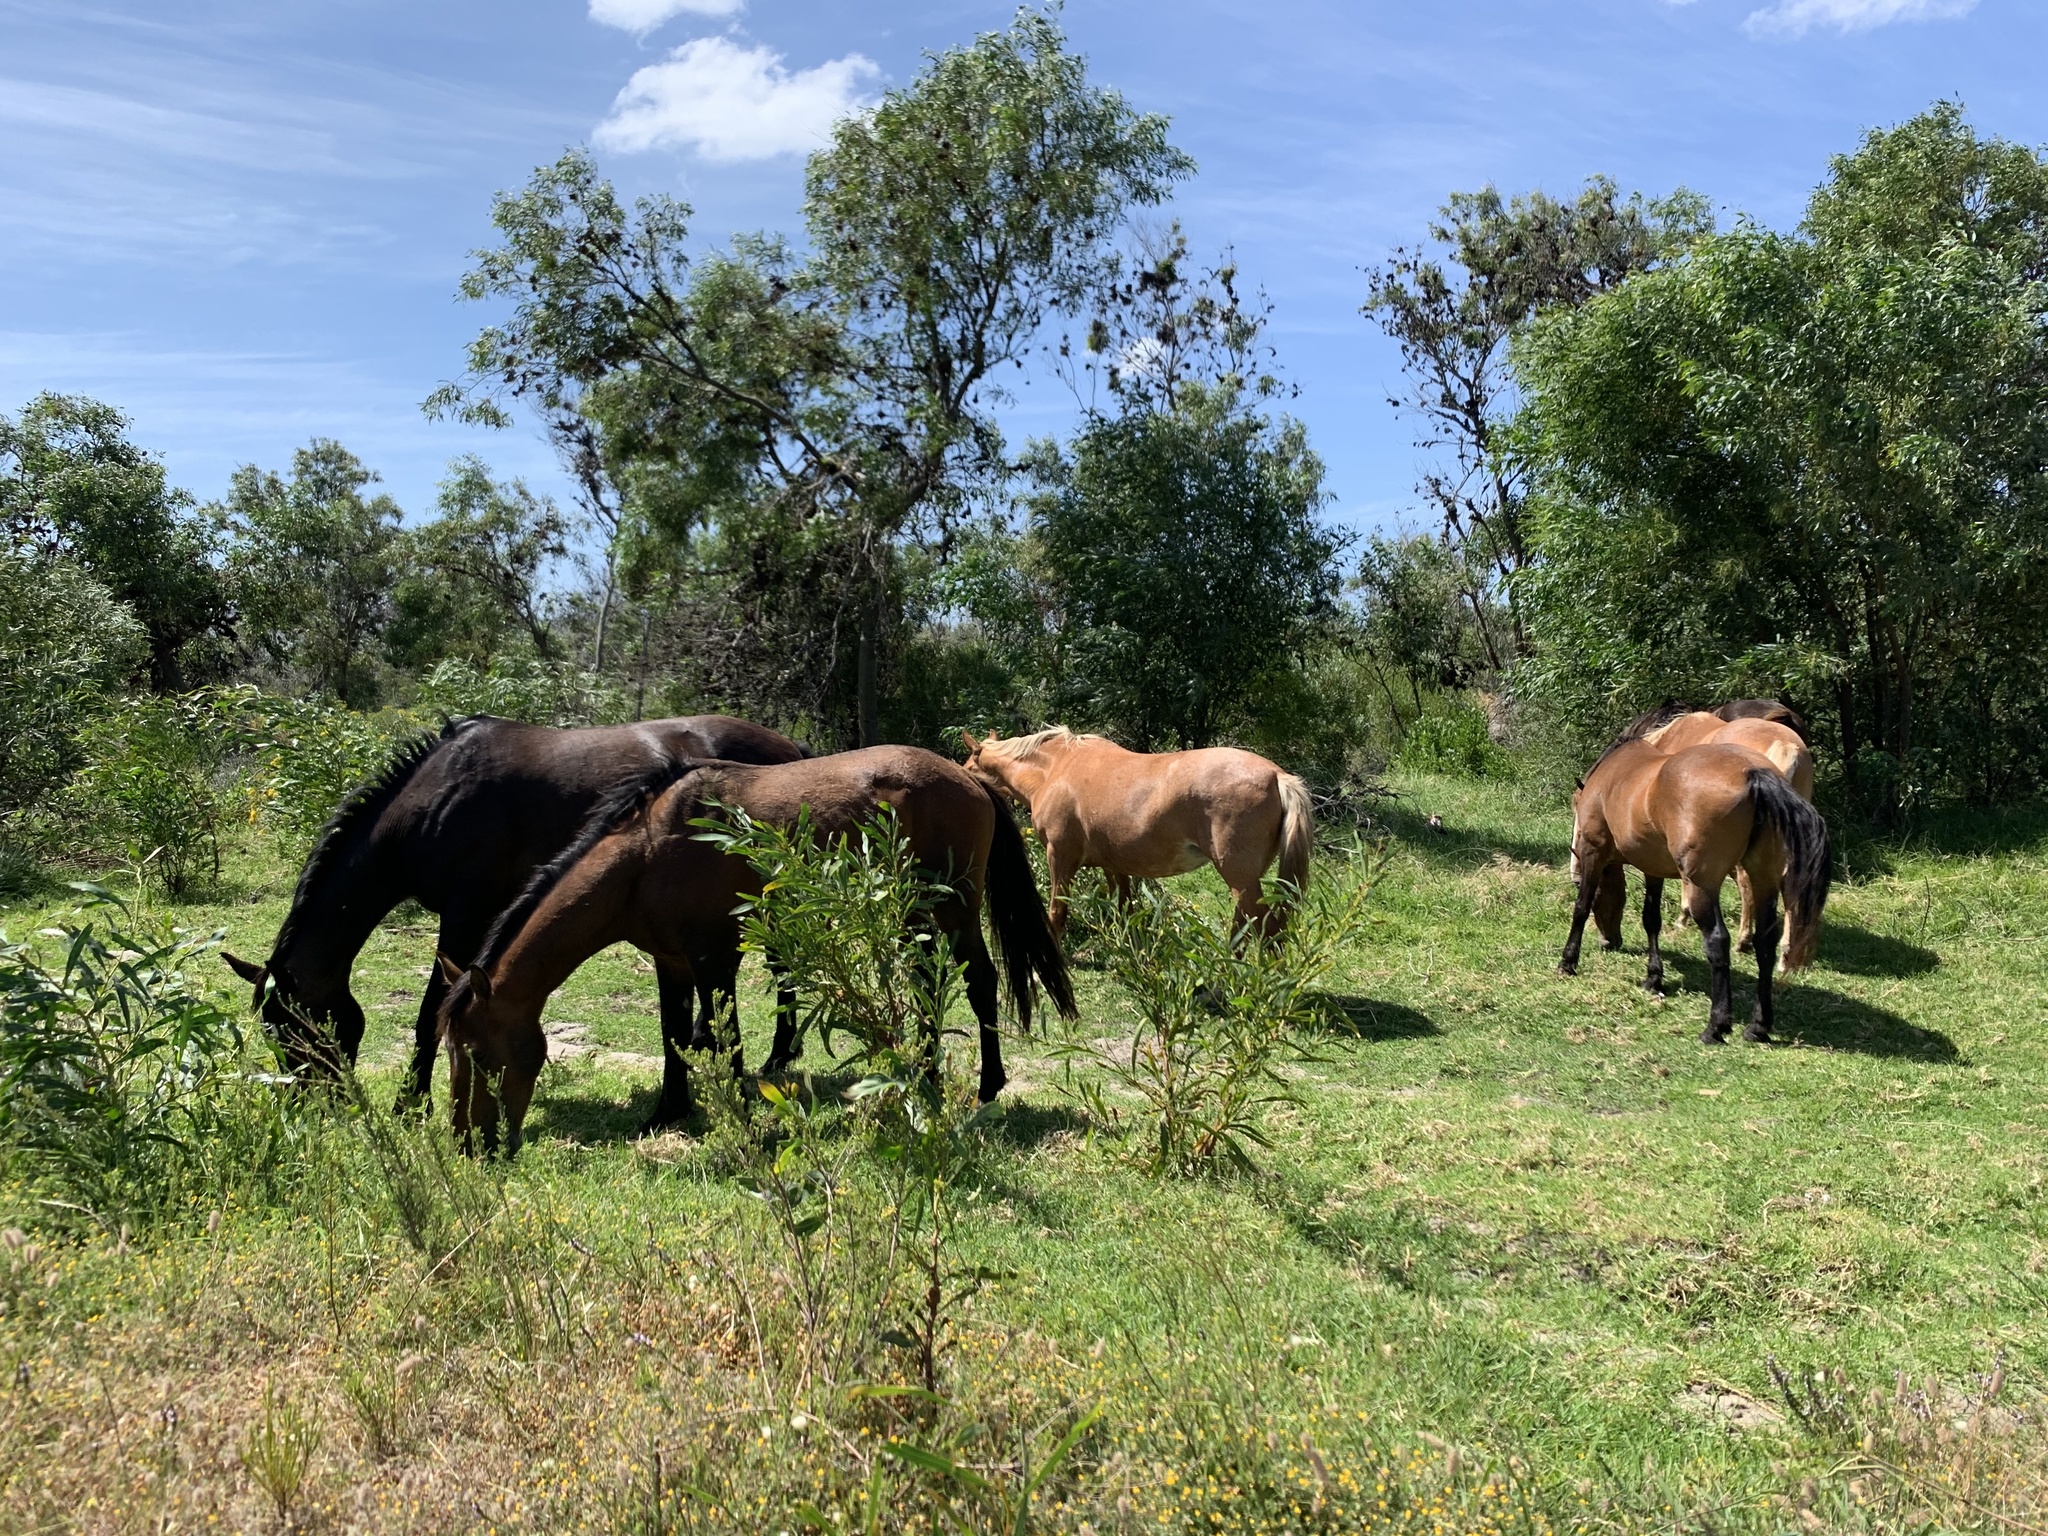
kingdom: Animalia
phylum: Chordata
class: Mammalia
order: Perissodactyla
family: Equidae
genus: Equus
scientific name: Equus caballus
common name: Horse
